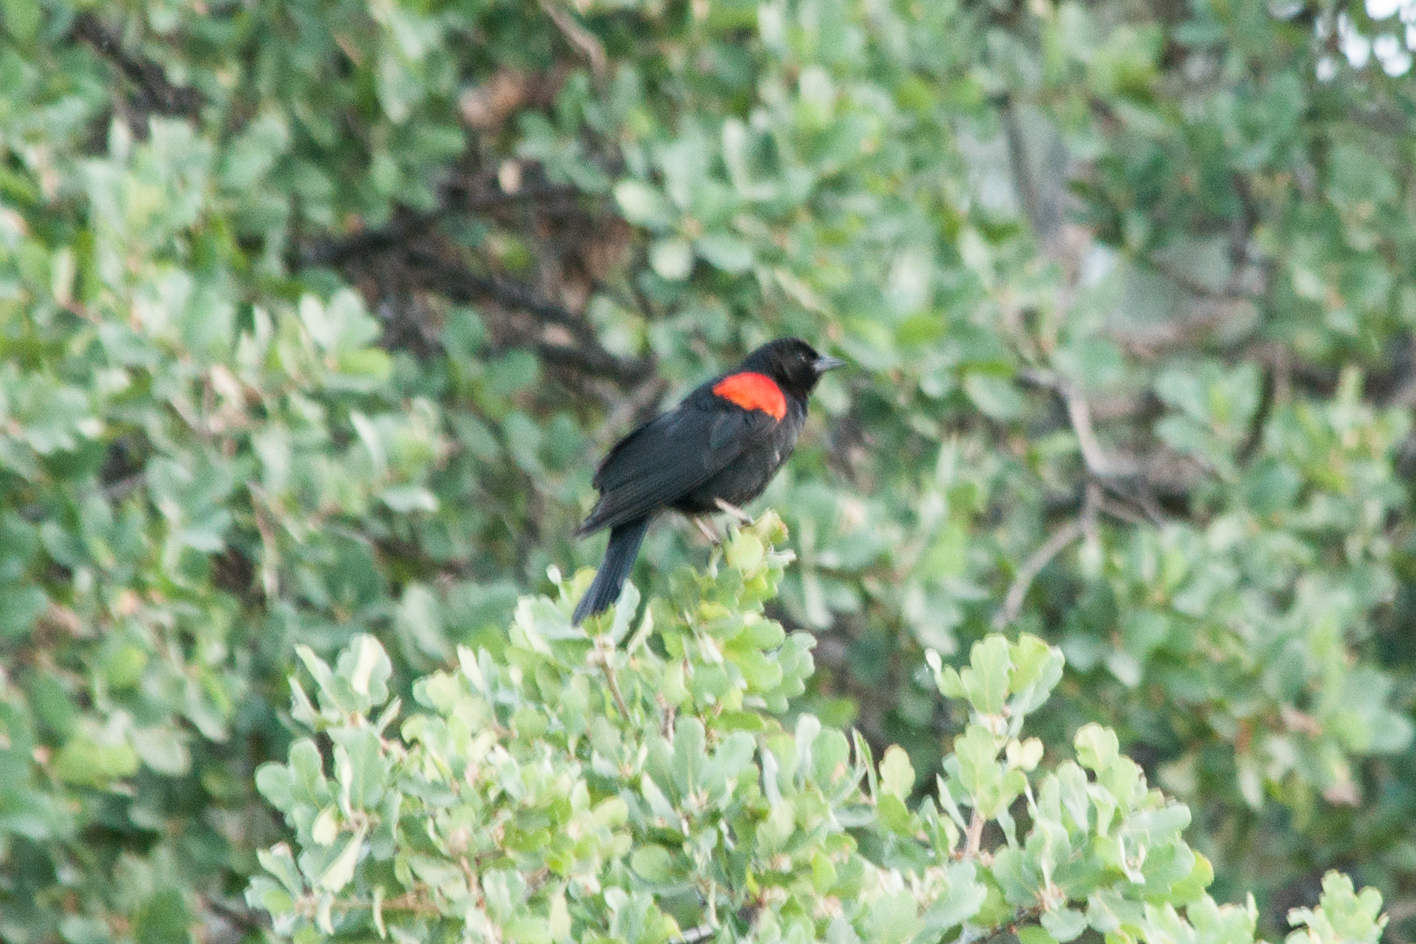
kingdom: Animalia
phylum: Chordata
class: Aves
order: Passeriformes
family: Icteridae
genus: Agelaius
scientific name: Agelaius phoeniceus
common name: Red-winged blackbird
